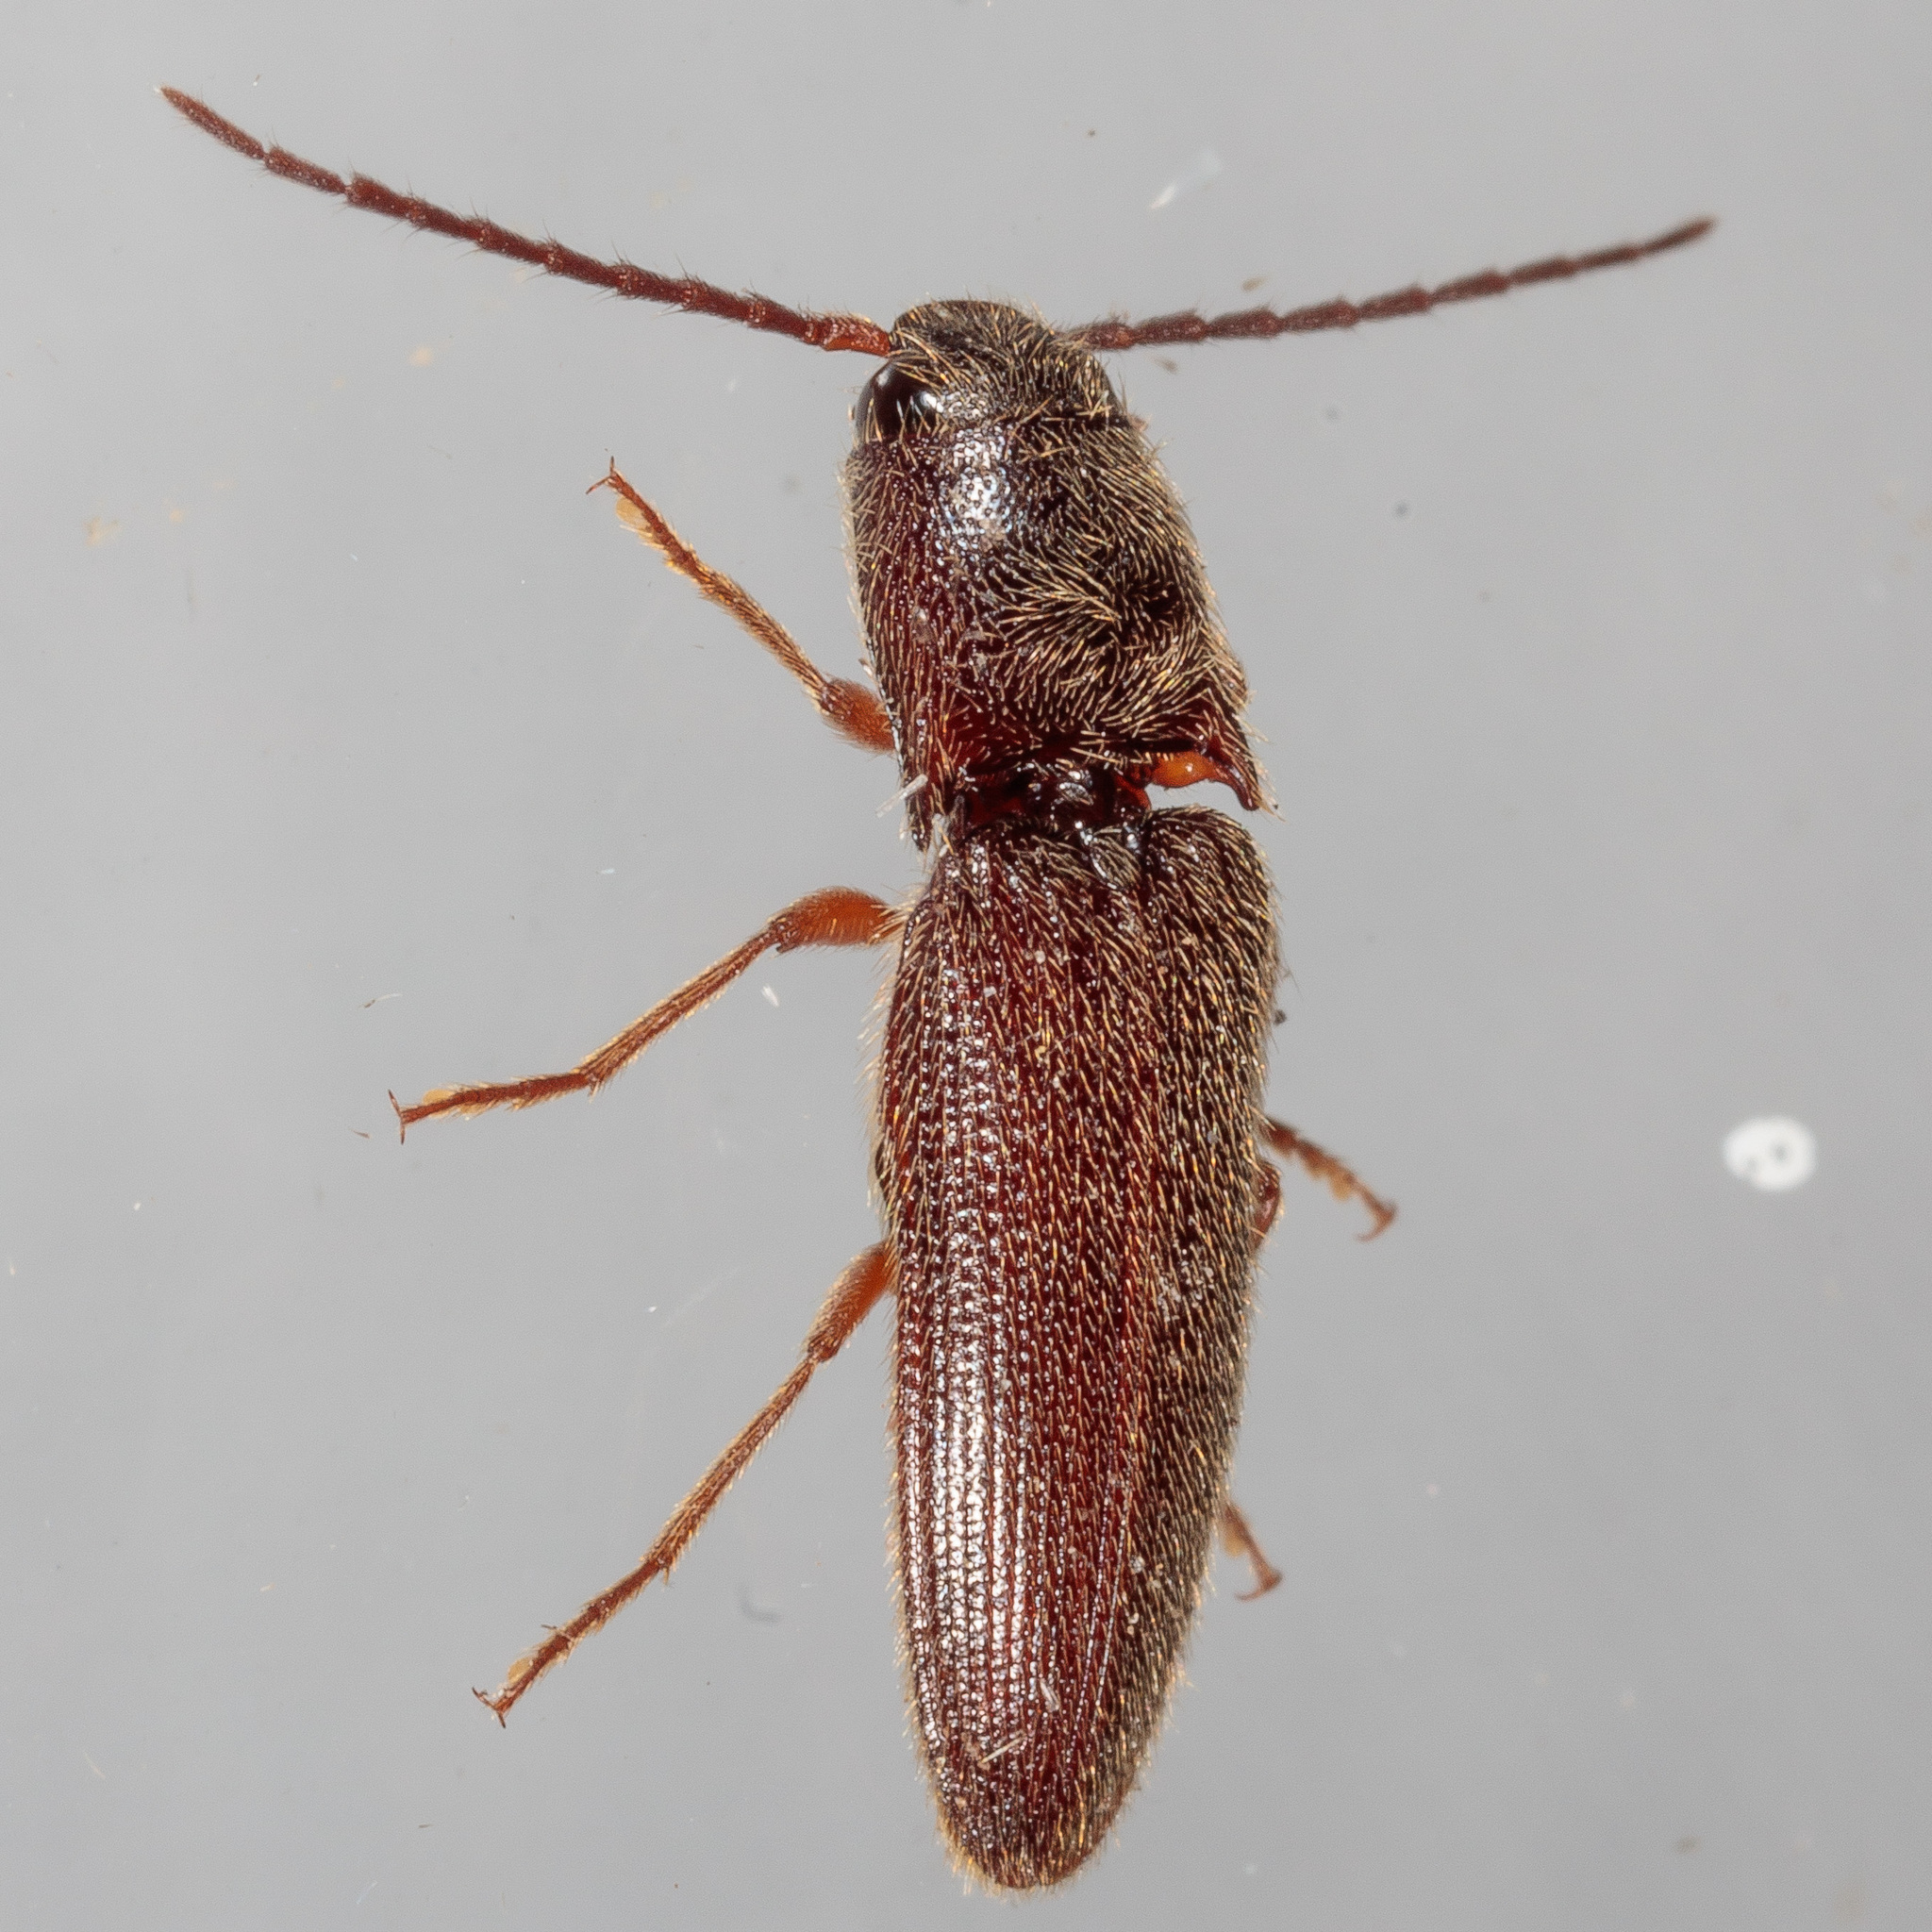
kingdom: Animalia
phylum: Arthropoda
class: Insecta
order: Coleoptera
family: Elateridae
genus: Dipropus
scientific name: Dipropus
